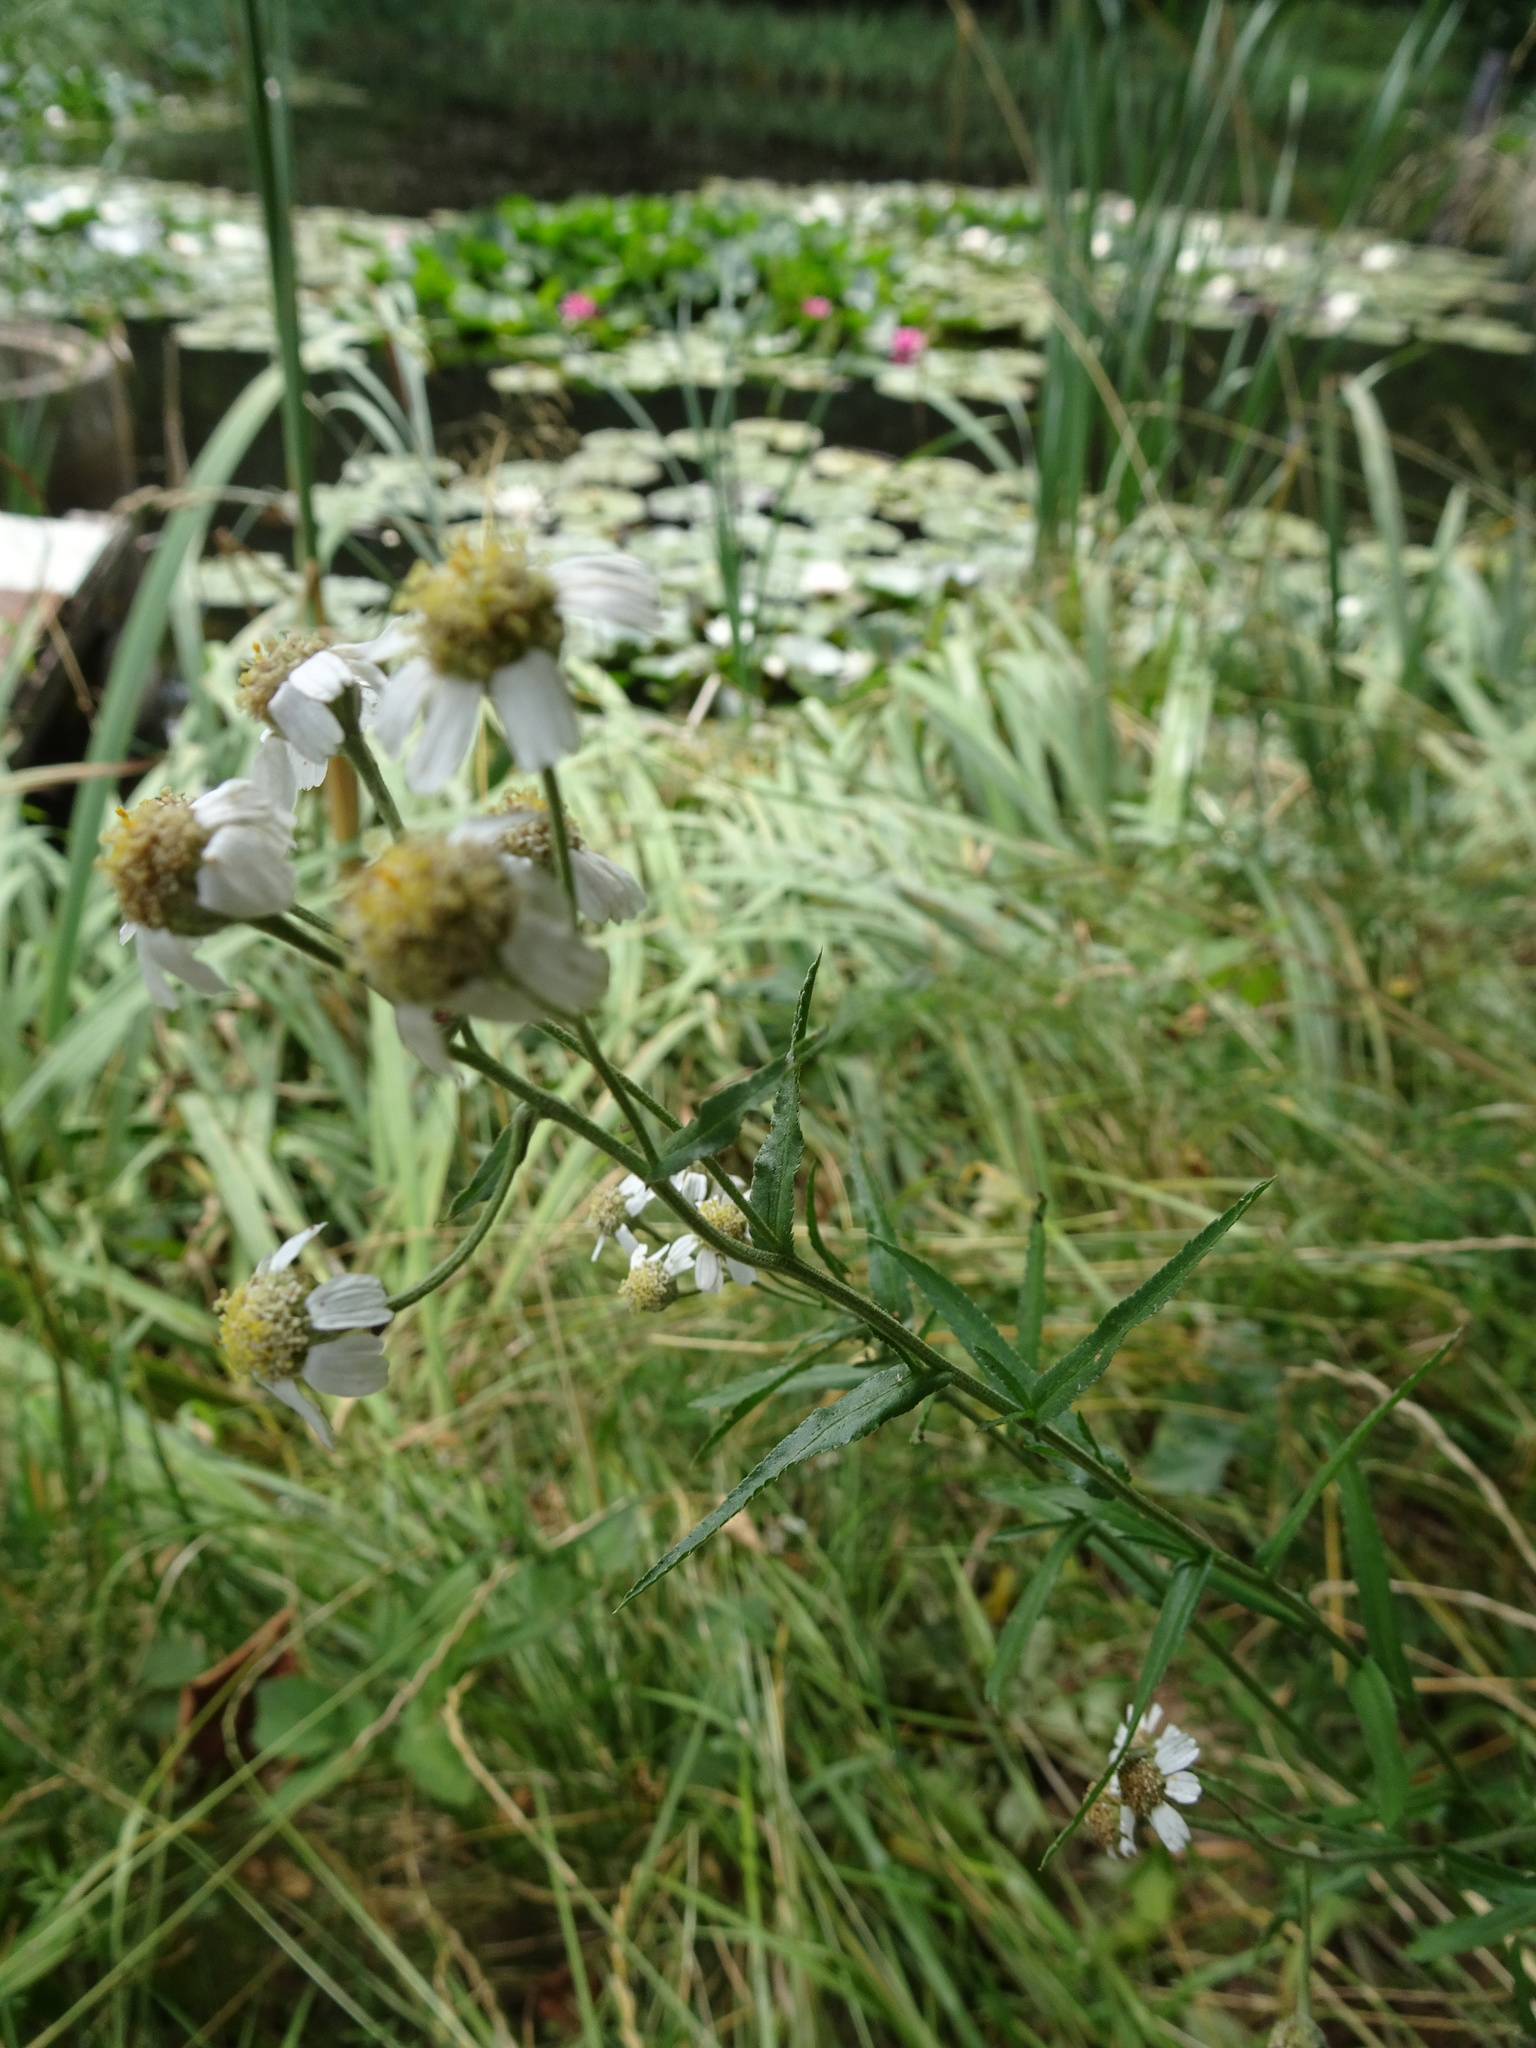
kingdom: Plantae
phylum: Tracheophyta
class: Magnoliopsida
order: Asterales
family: Asteraceae
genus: Achillea
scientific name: Achillea ptarmica
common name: Sneezeweed
